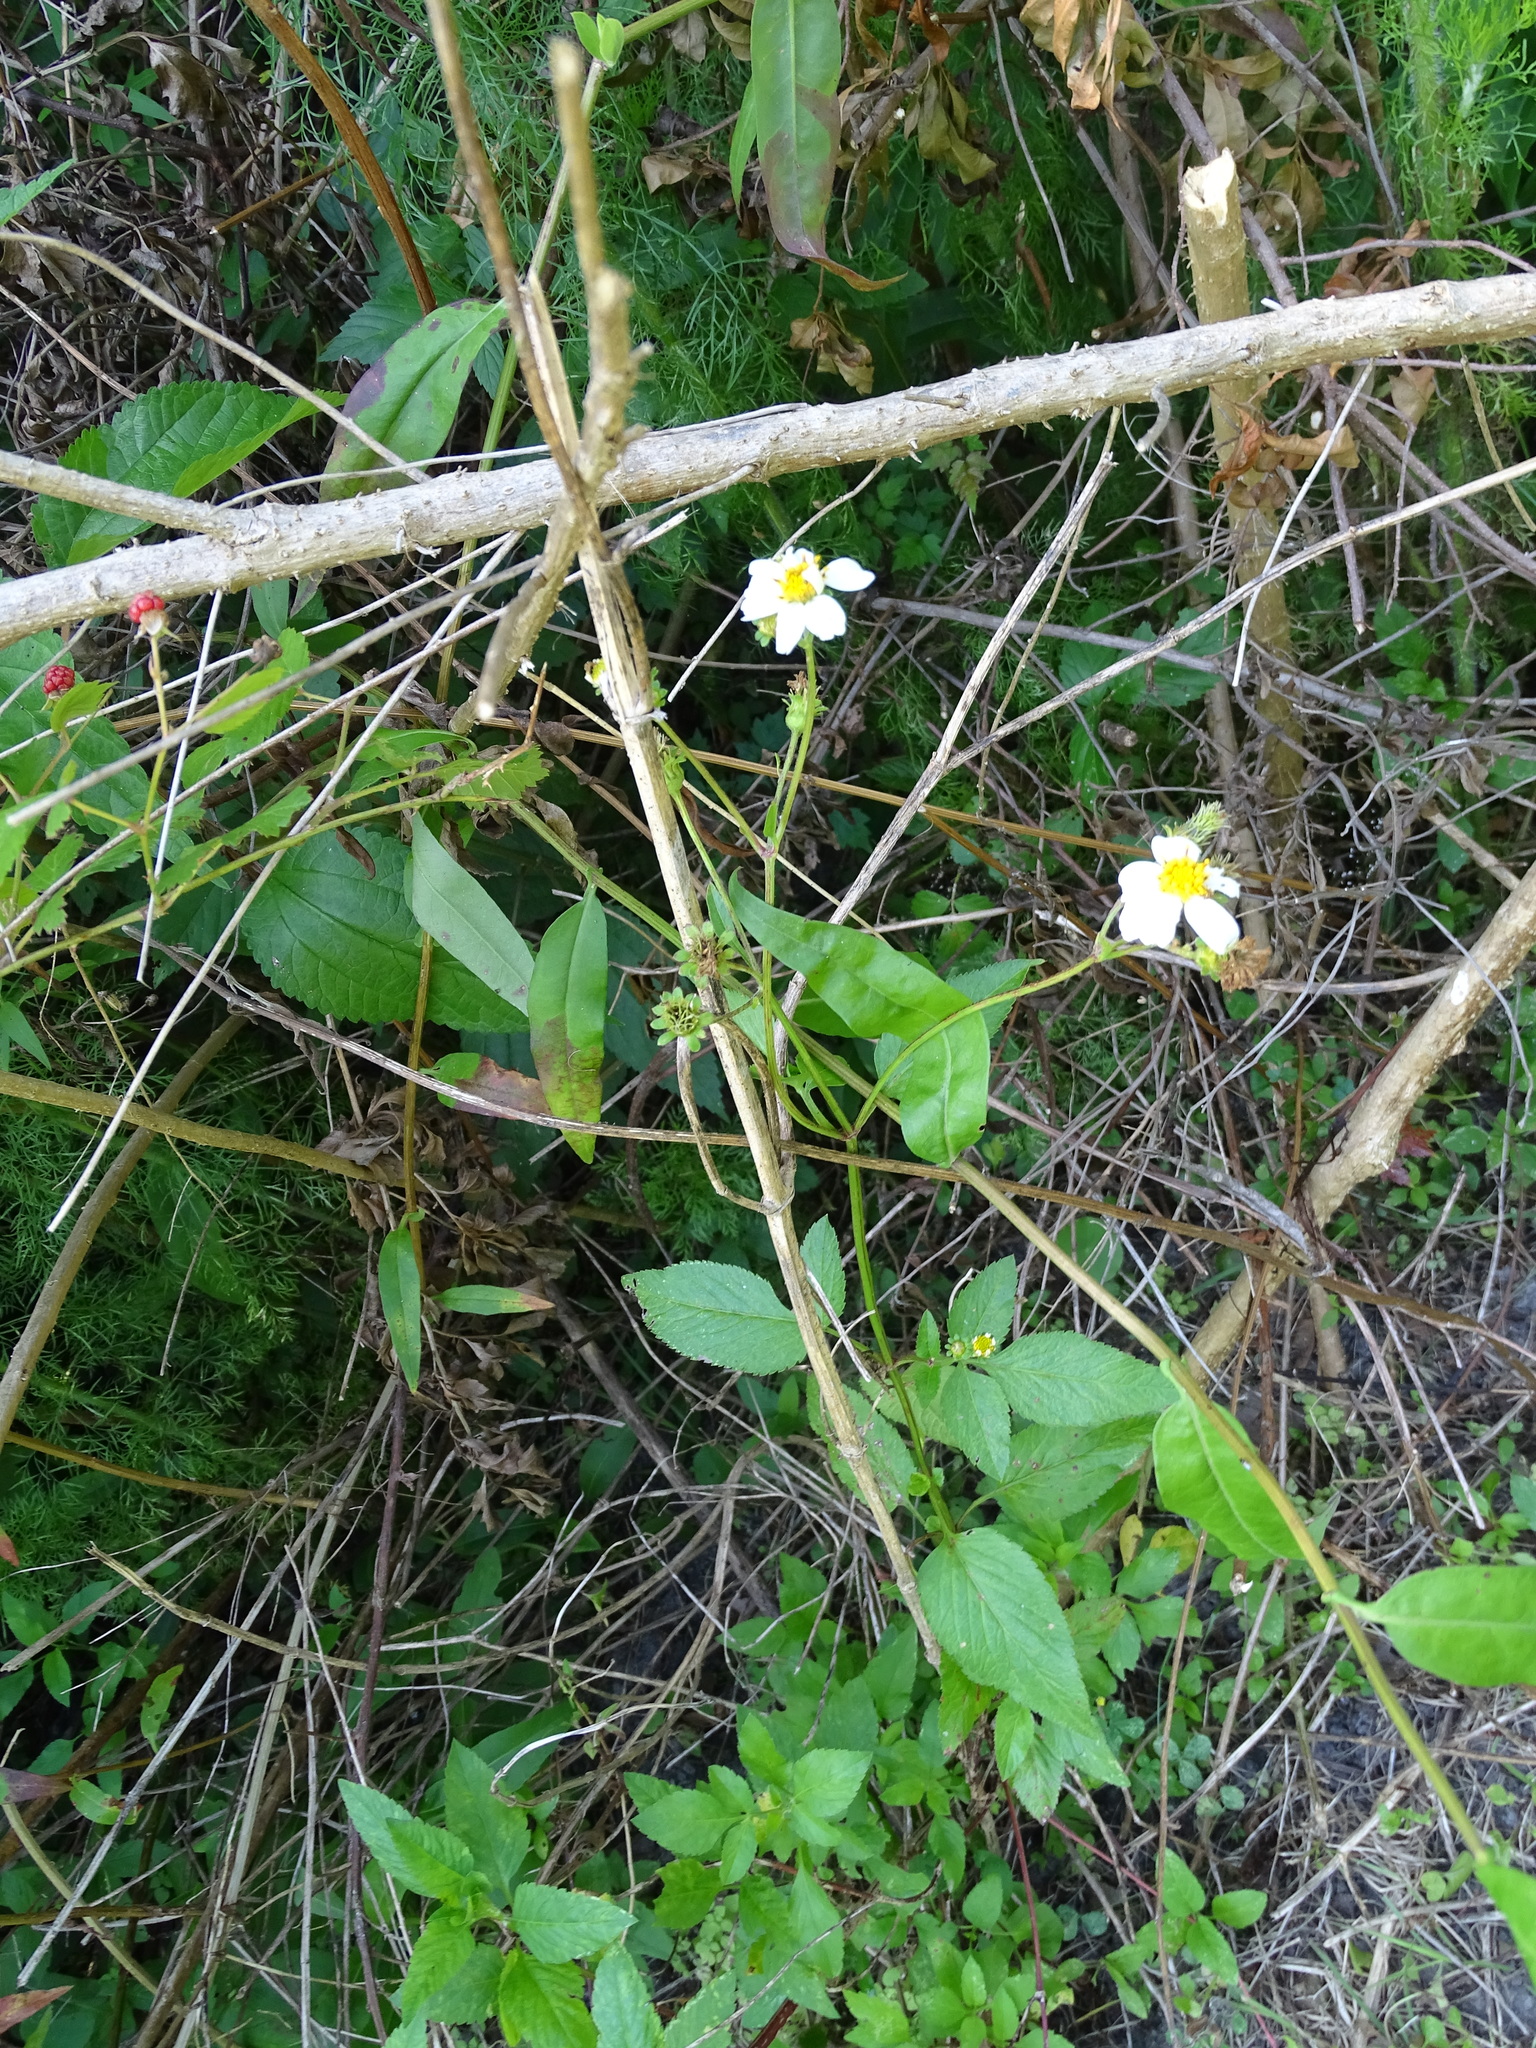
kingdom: Plantae
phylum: Tracheophyta
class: Magnoliopsida
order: Asterales
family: Asteraceae
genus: Bidens
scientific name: Bidens alba
